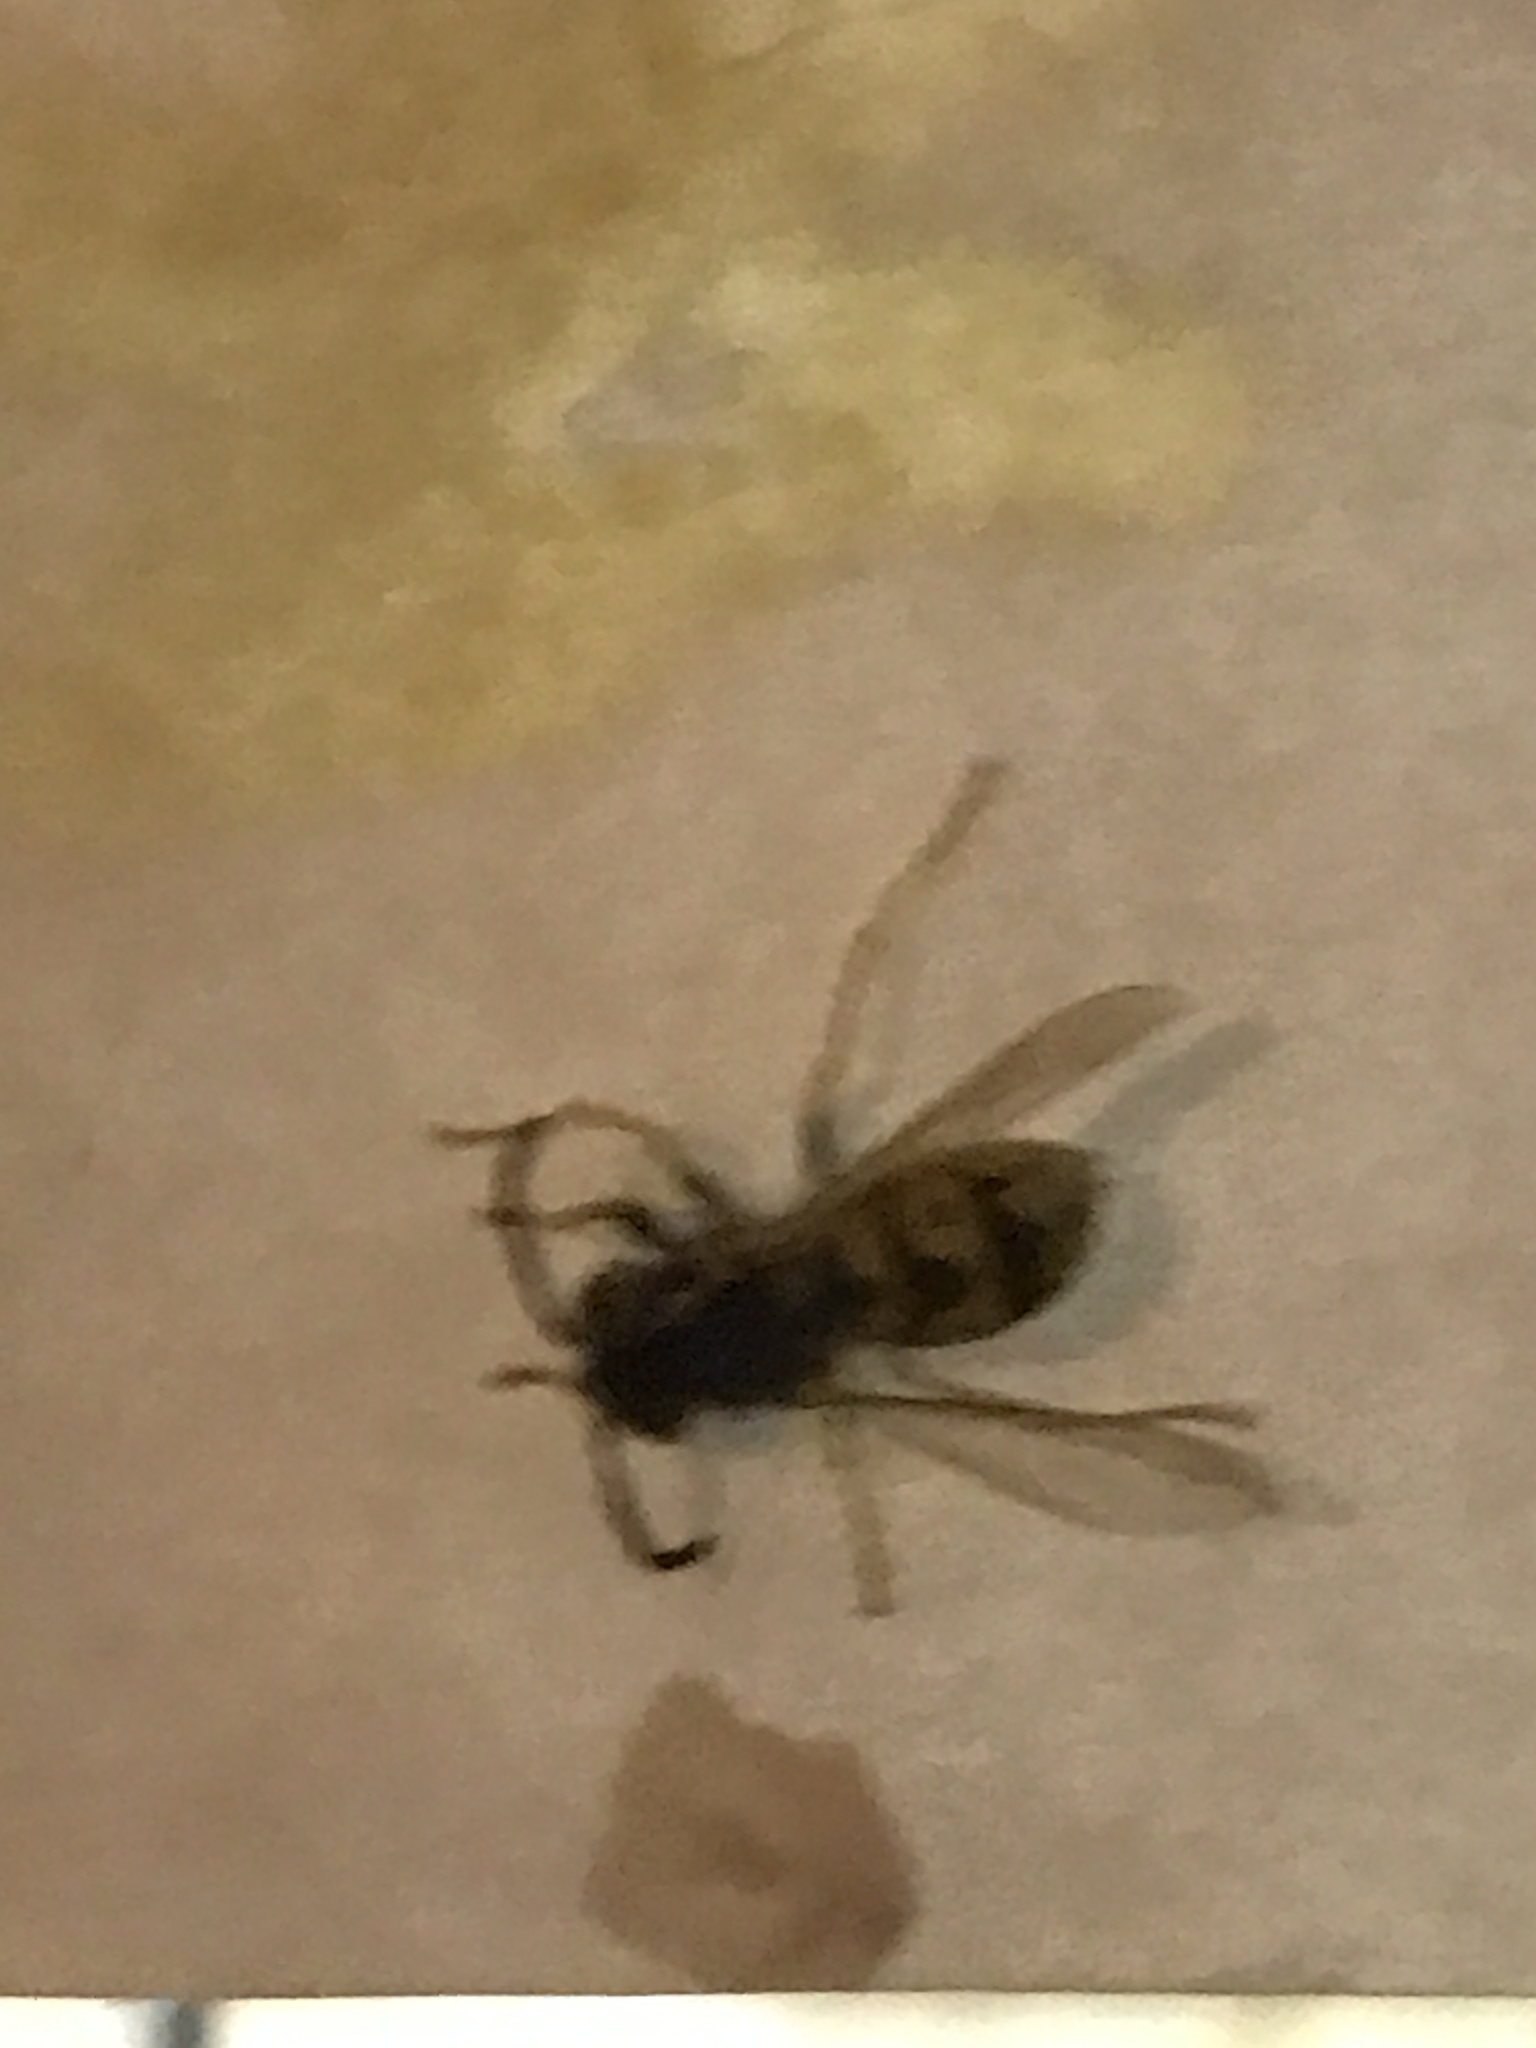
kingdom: Animalia
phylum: Arthropoda
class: Insecta
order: Hymenoptera
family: Vespidae
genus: Vespula
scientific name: Vespula germanica
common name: German wasp
